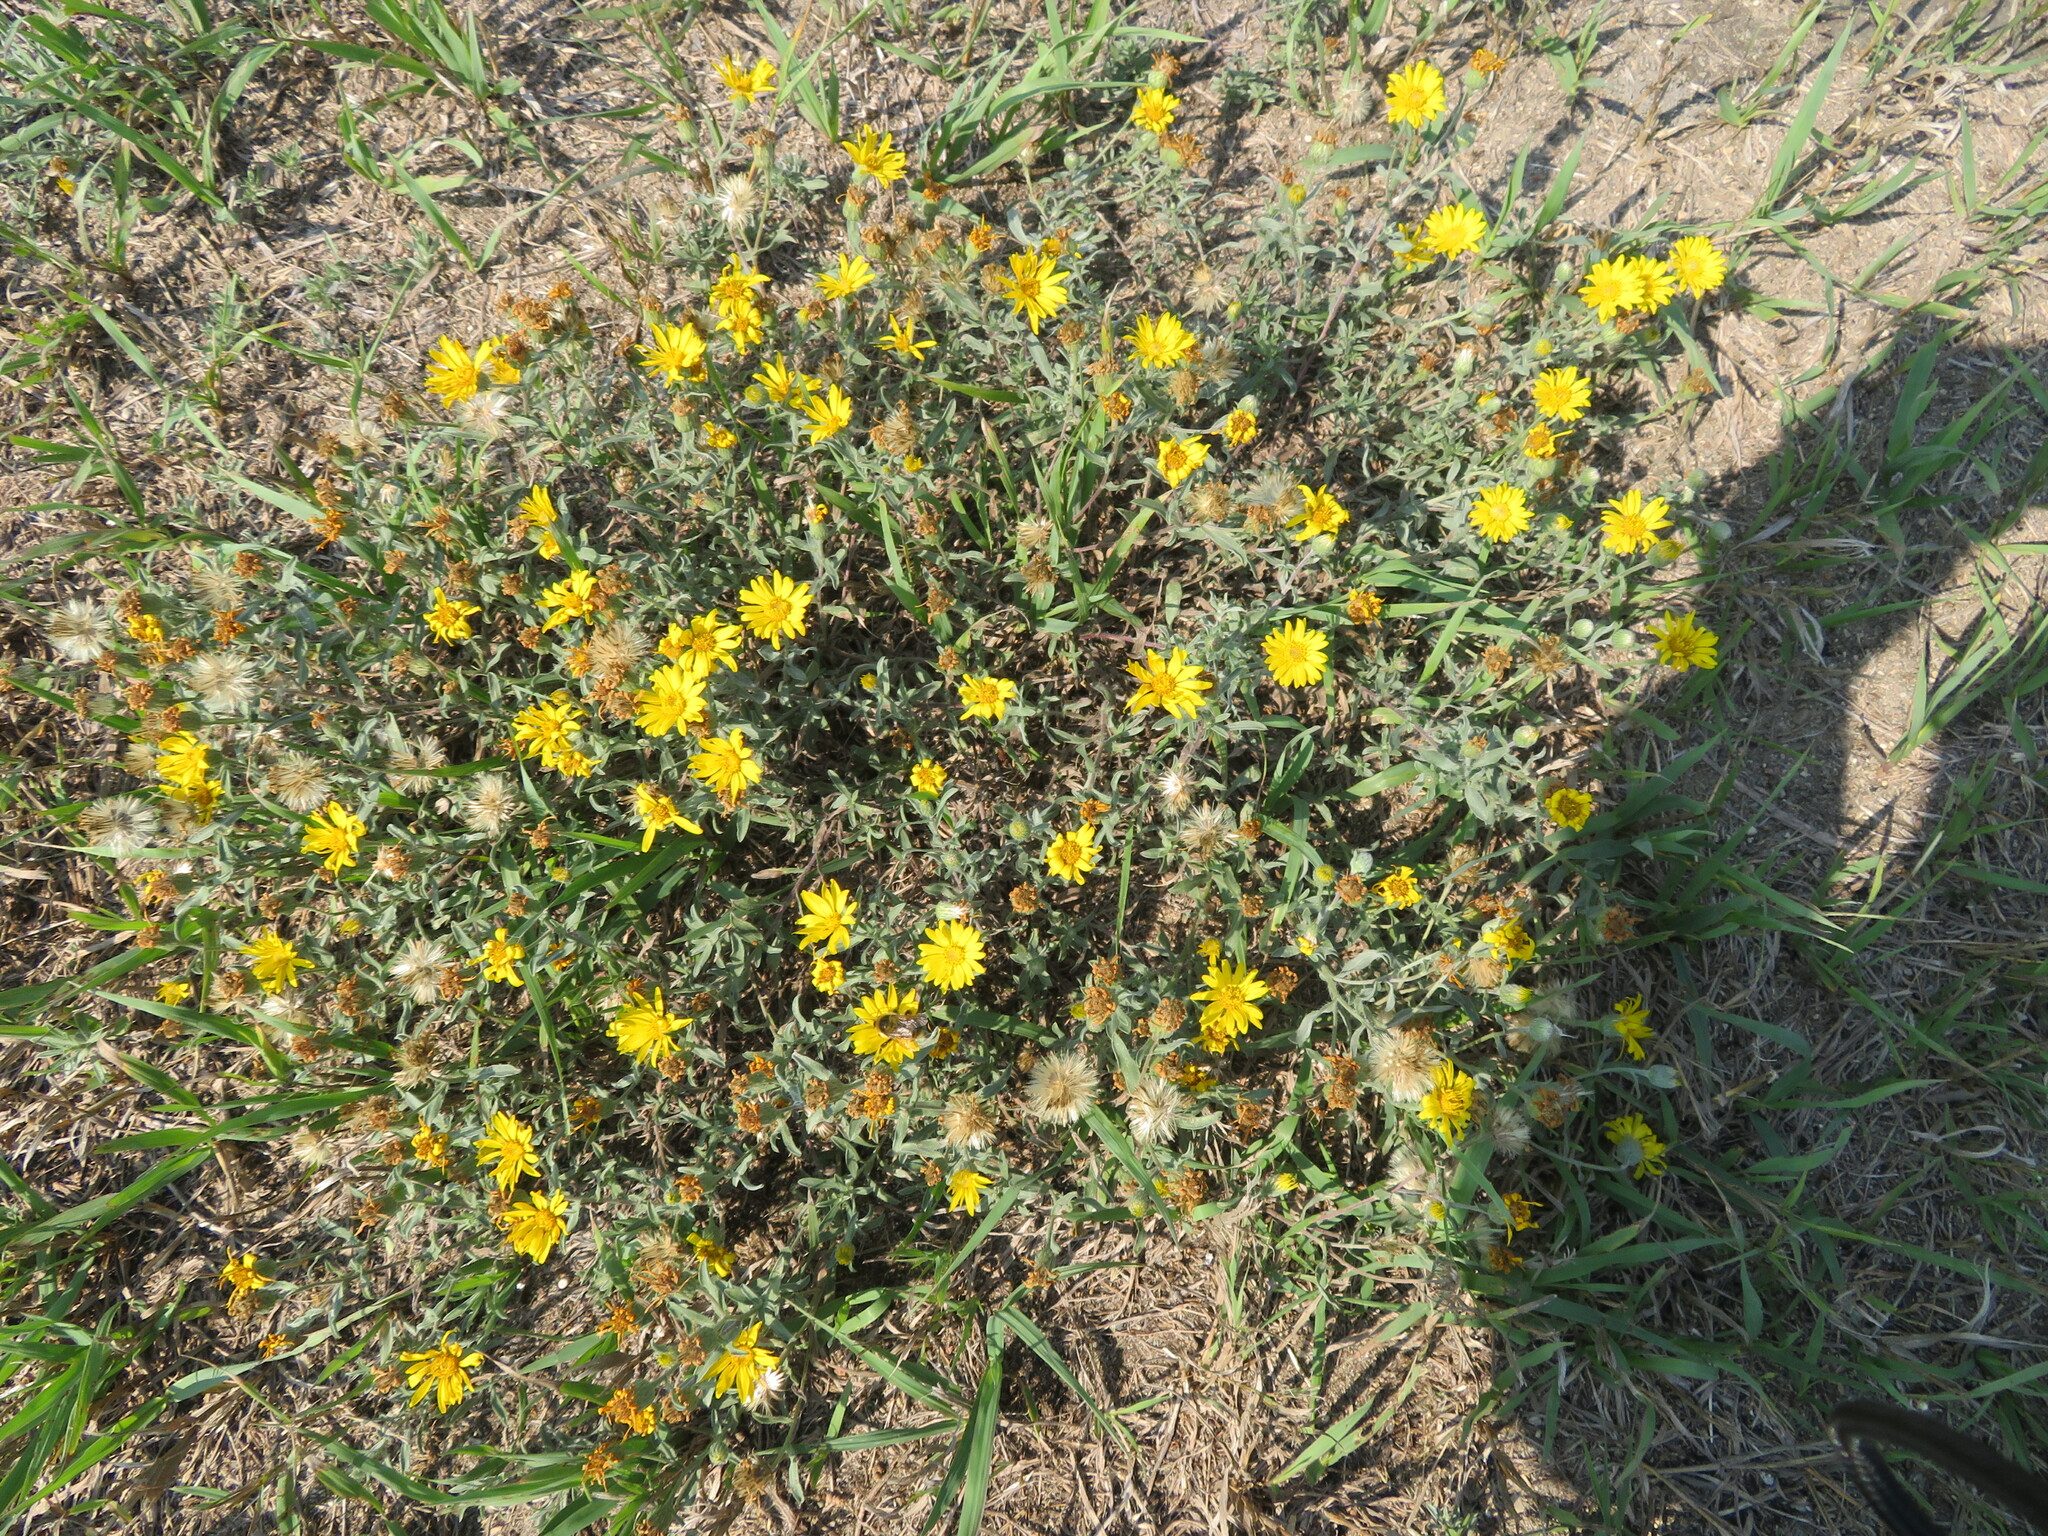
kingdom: Plantae
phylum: Tracheophyta
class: Magnoliopsida
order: Asterales
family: Asteraceae
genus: Heterotheca
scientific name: Heterotheca villosa
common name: Hairy false goldenaster
